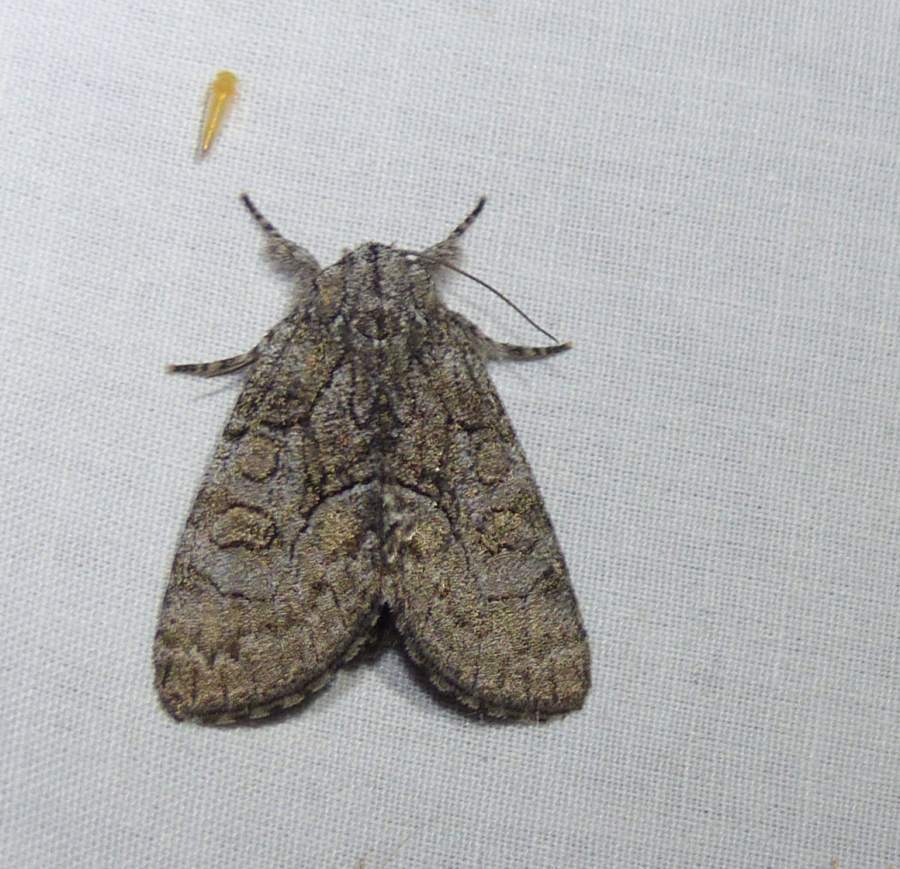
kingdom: Animalia
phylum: Arthropoda
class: Insecta
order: Lepidoptera
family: Noctuidae
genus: Raphia
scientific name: Raphia frater
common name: Brother
